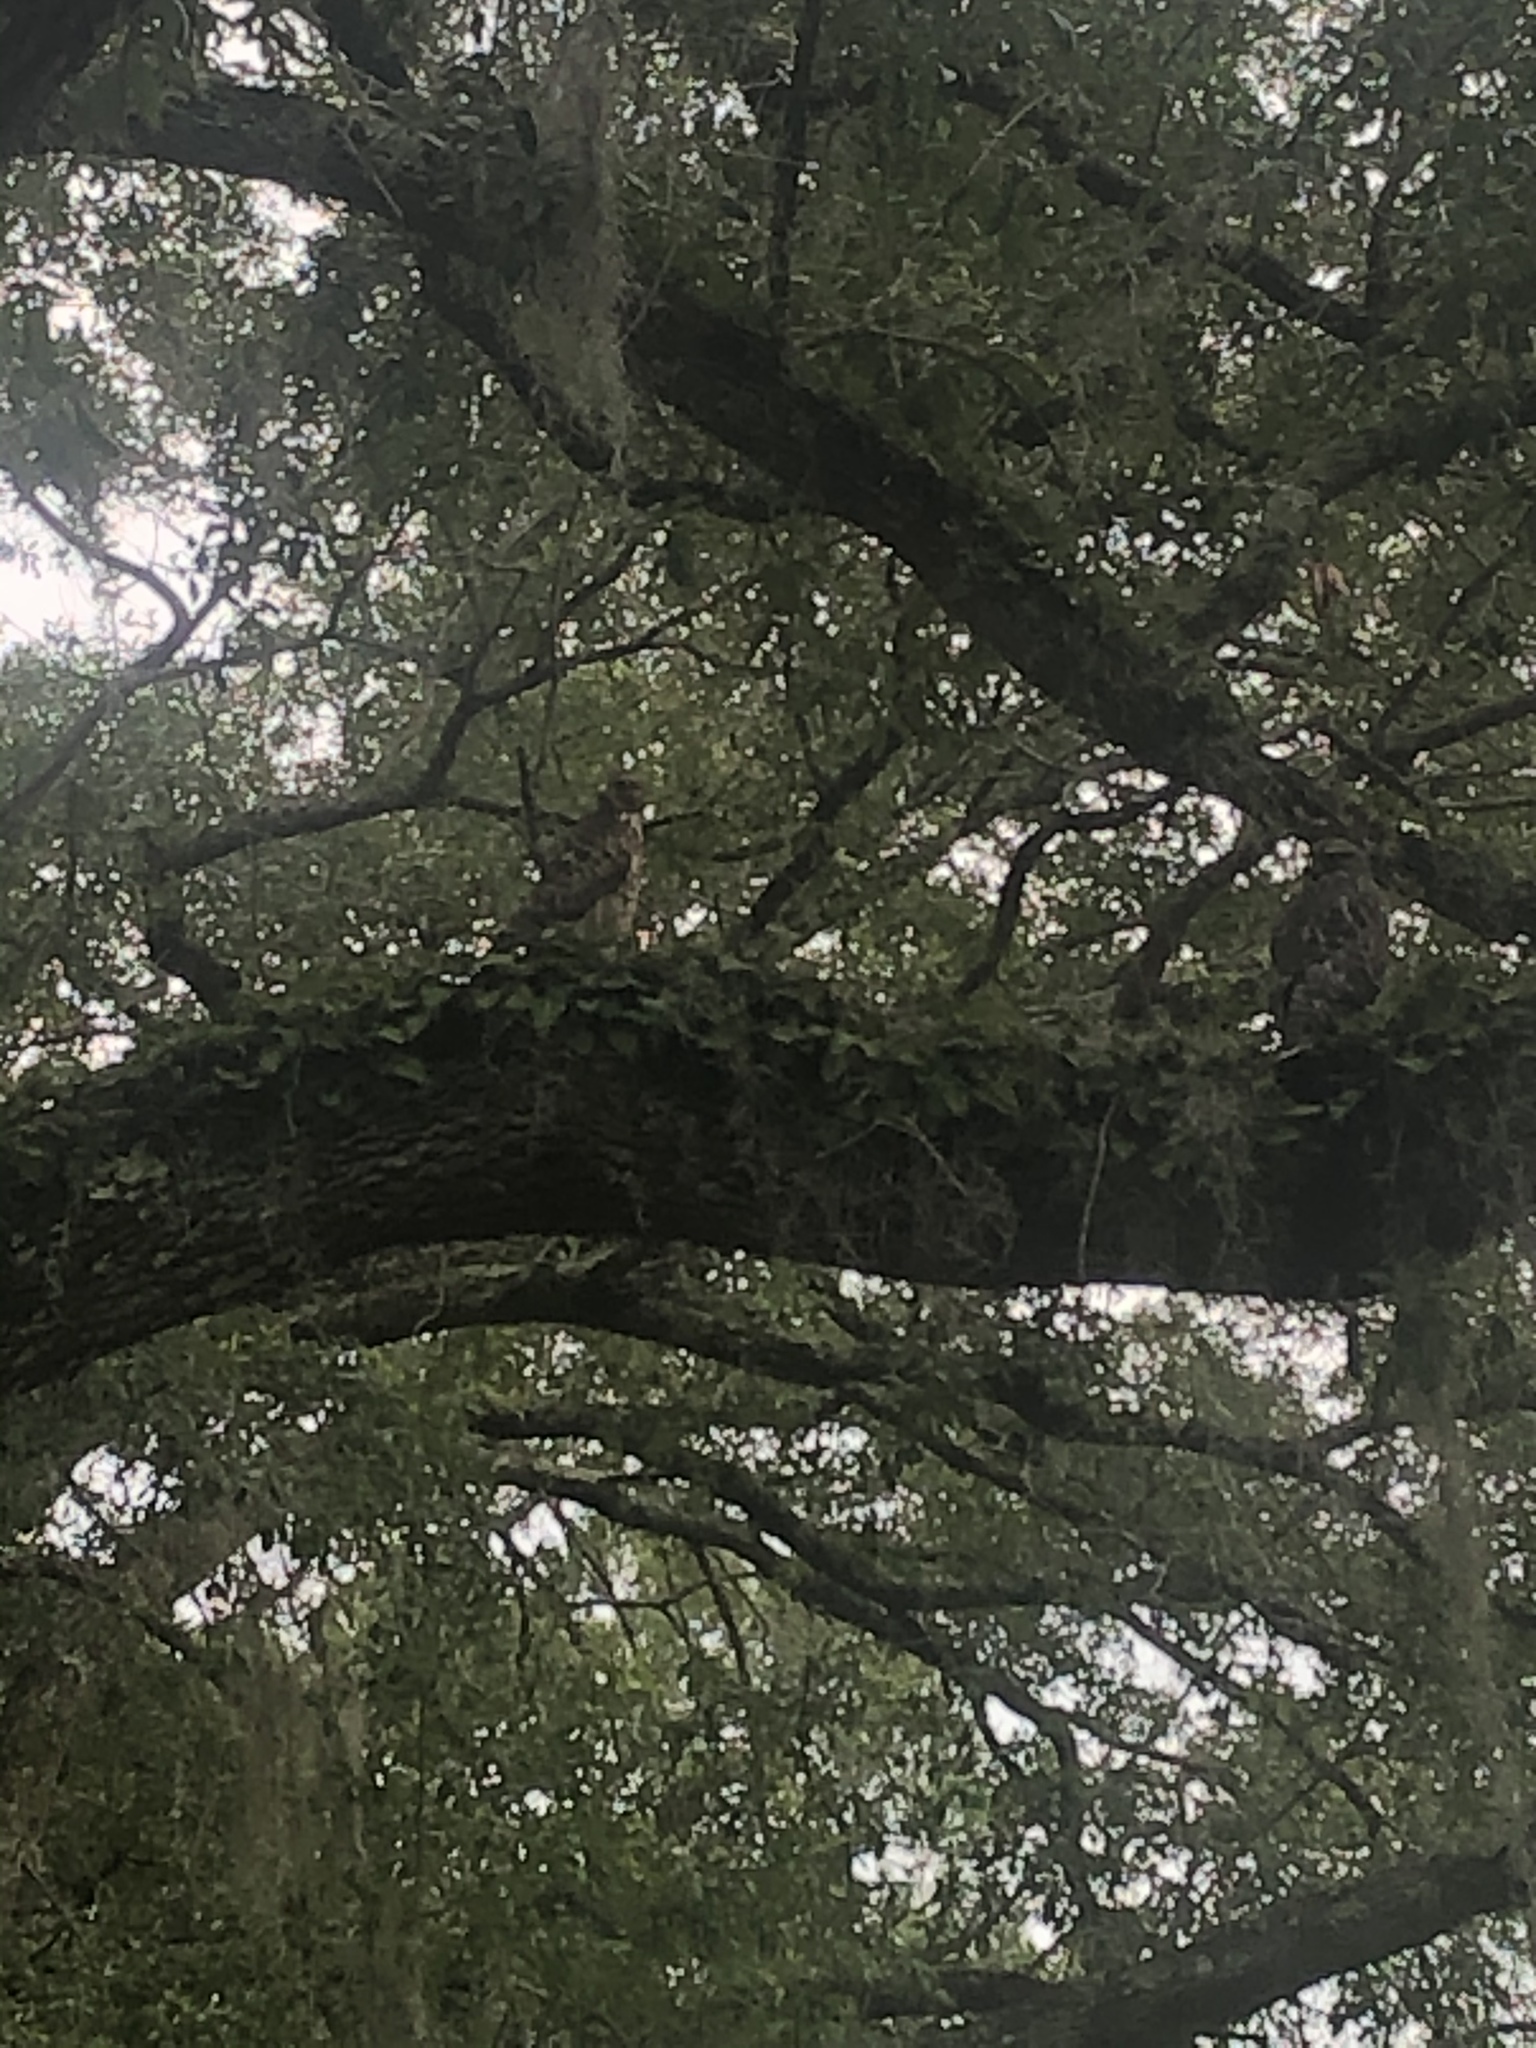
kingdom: Animalia
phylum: Chordata
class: Aves
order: Accipitriformes
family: Accipitridae
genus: Buteo
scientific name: Buteo lineatus
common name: Red-shouldered hawk
